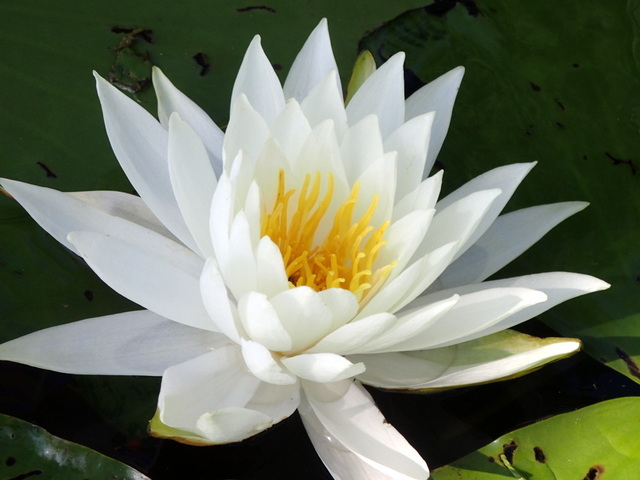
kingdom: Plantae
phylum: Tracheophyta
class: Magnoliopsida
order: Nymphaeales
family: Nymphaeaceae
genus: Nymphaea
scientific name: Nymphaea odorata
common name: Fragrant water-lily
